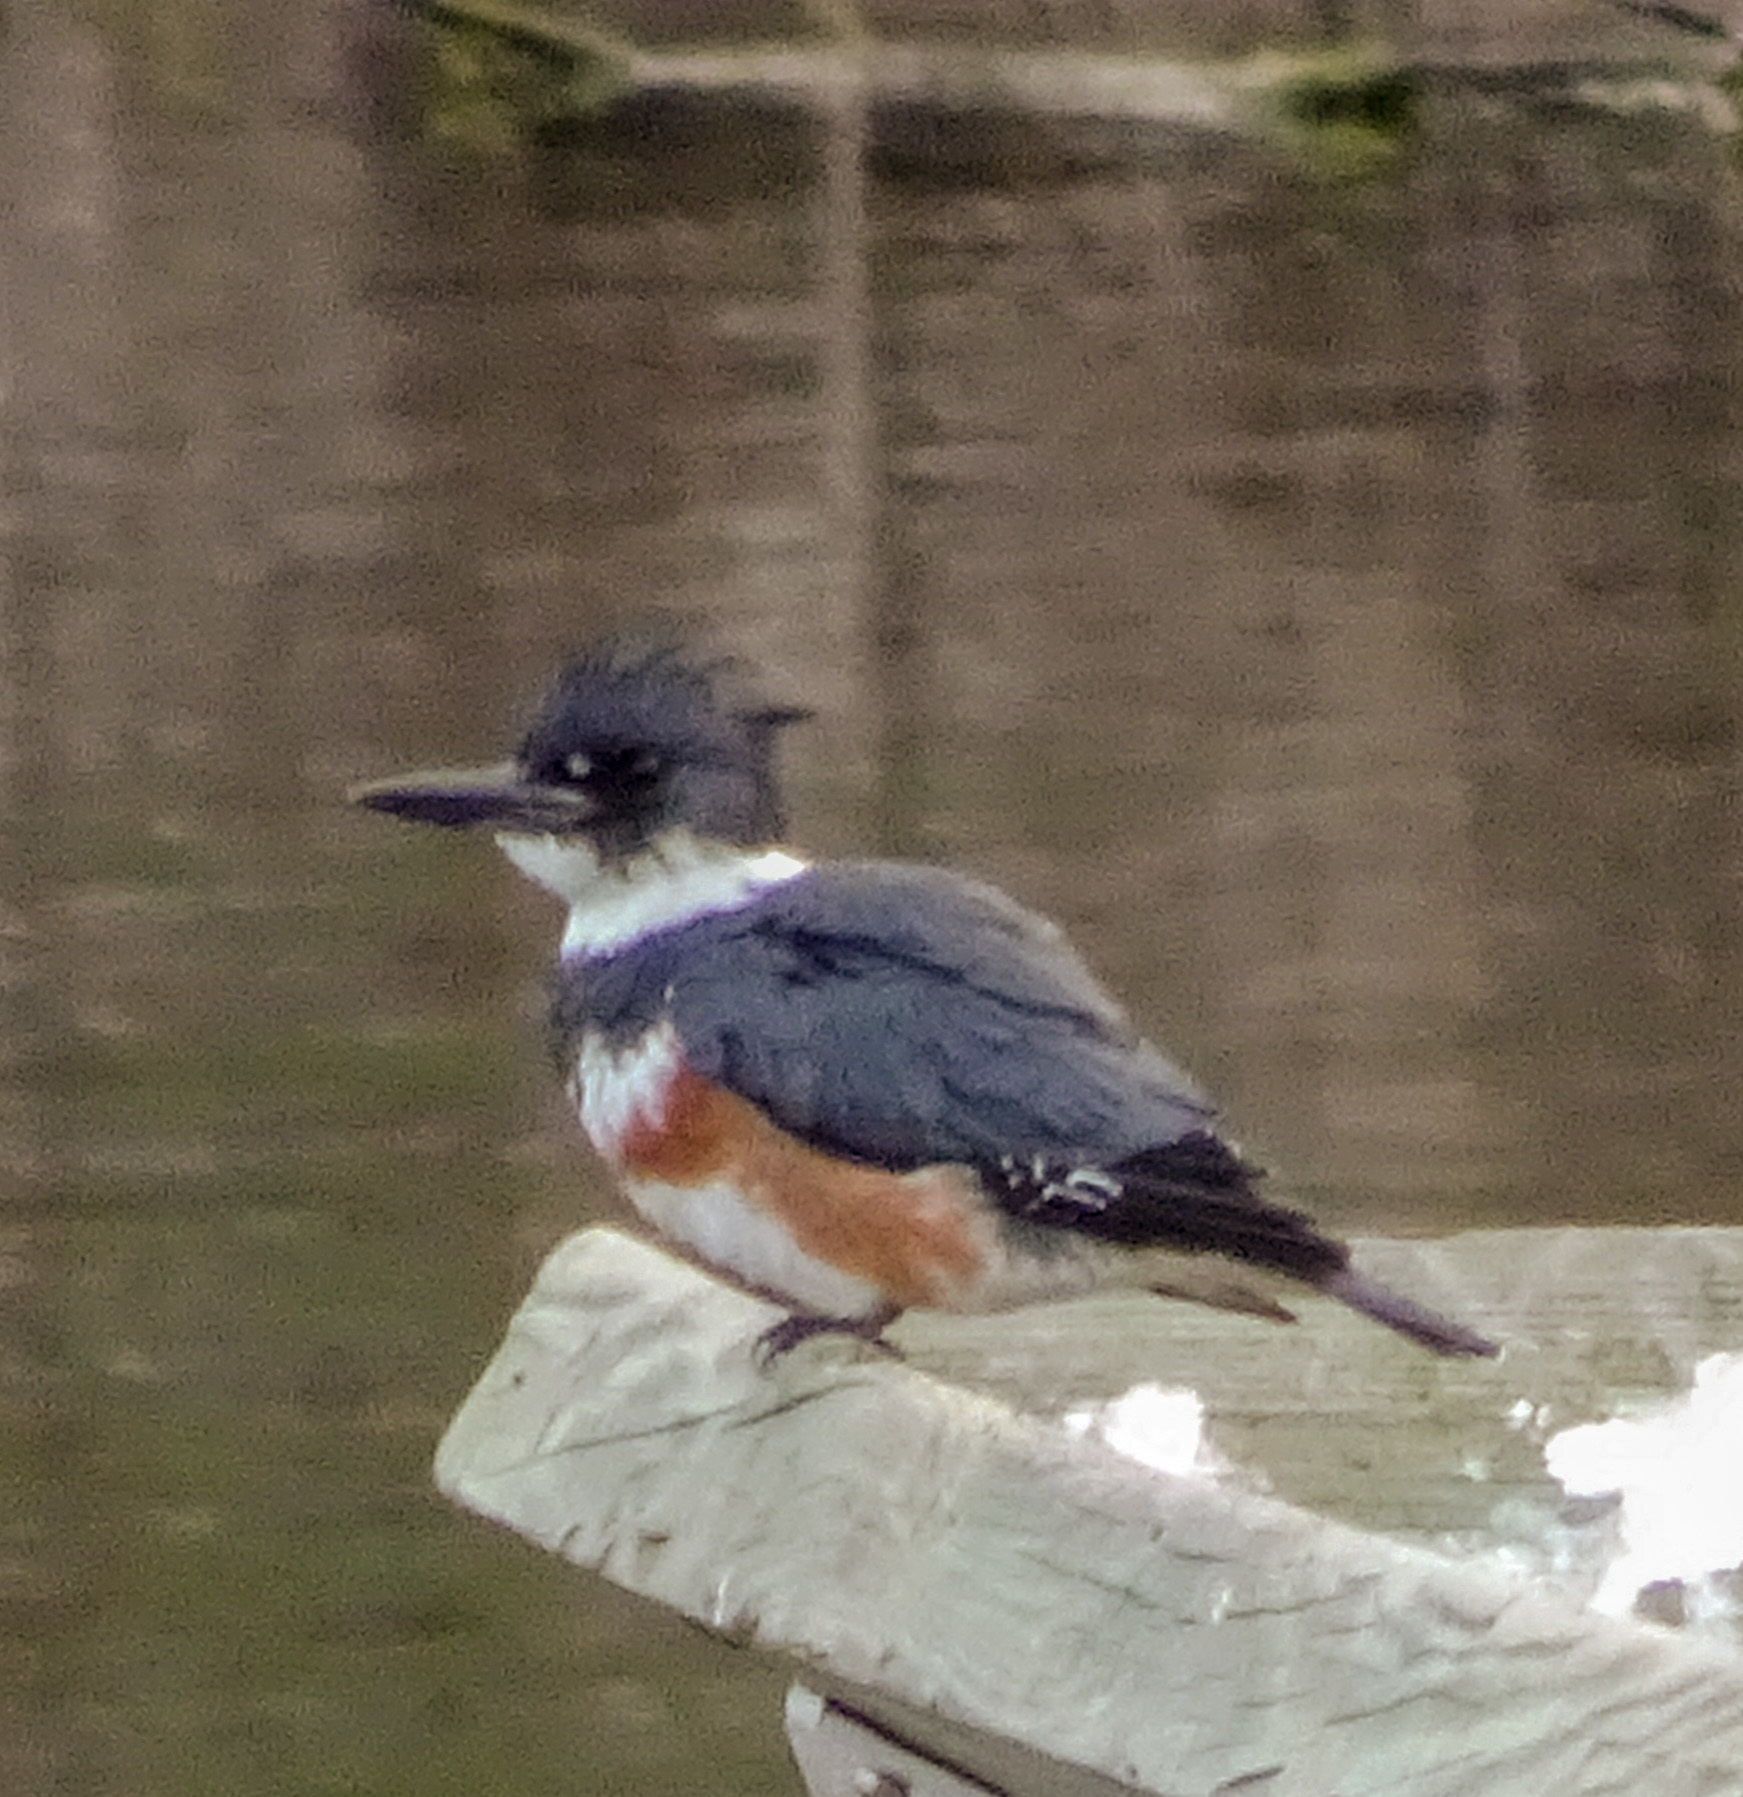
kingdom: Animalia
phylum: Chordata
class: Aves
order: Coraciiformes
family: Alcedinidae
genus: Megaceryle
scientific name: Megaceryle alcyon
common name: Belted kingfisher
